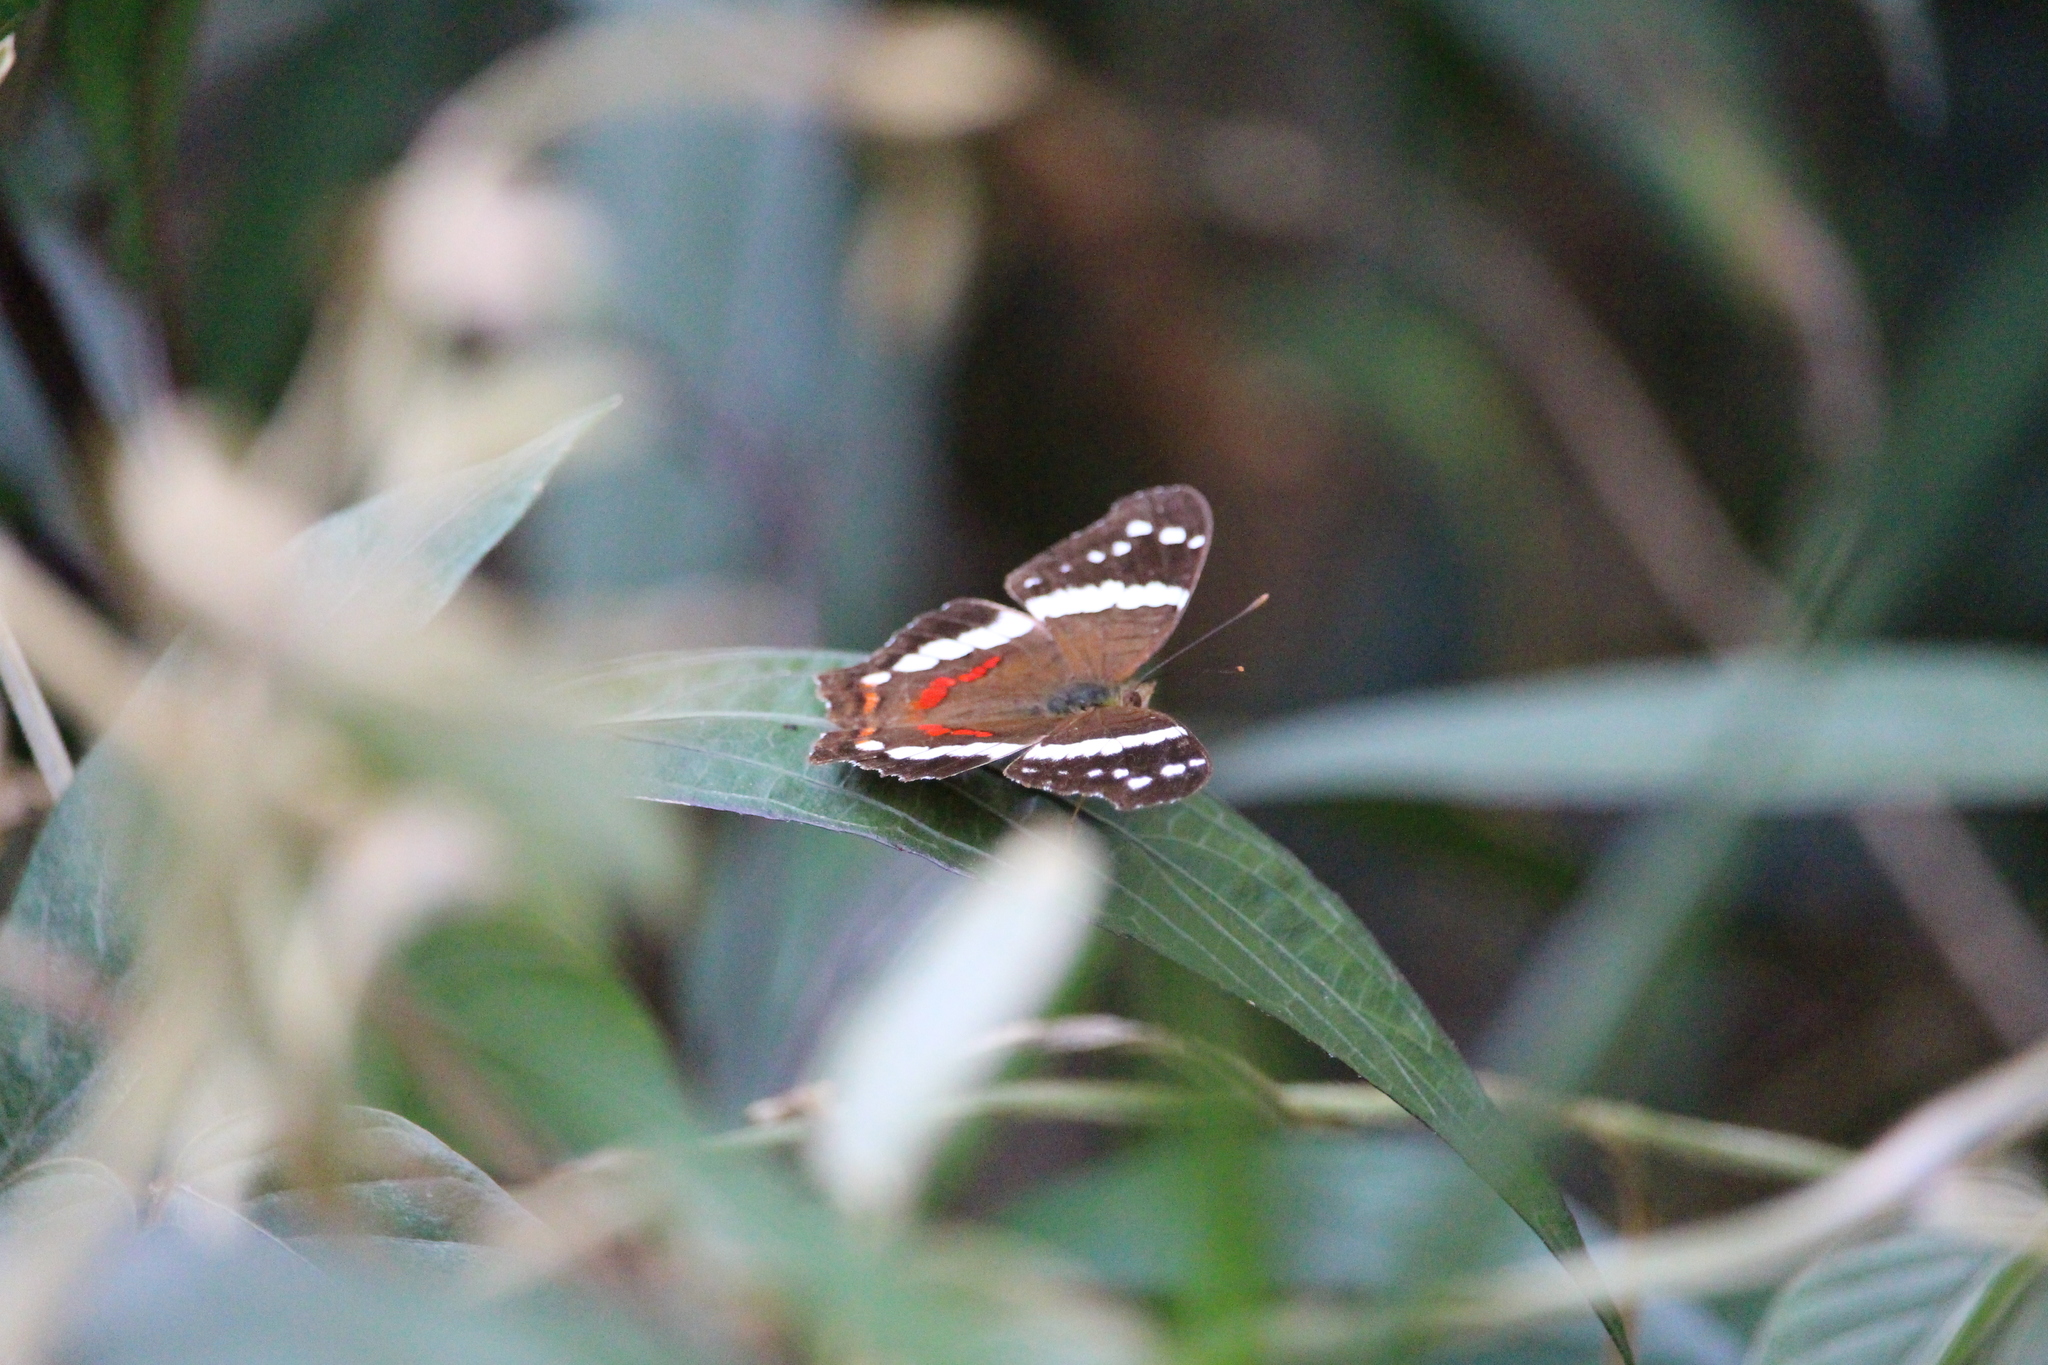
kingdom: Animalia
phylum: Arthropoda
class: Insecta
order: Lepidoptera
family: Nymphalidae
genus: Anartia
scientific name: Anartia fatima
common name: Banded peacock
